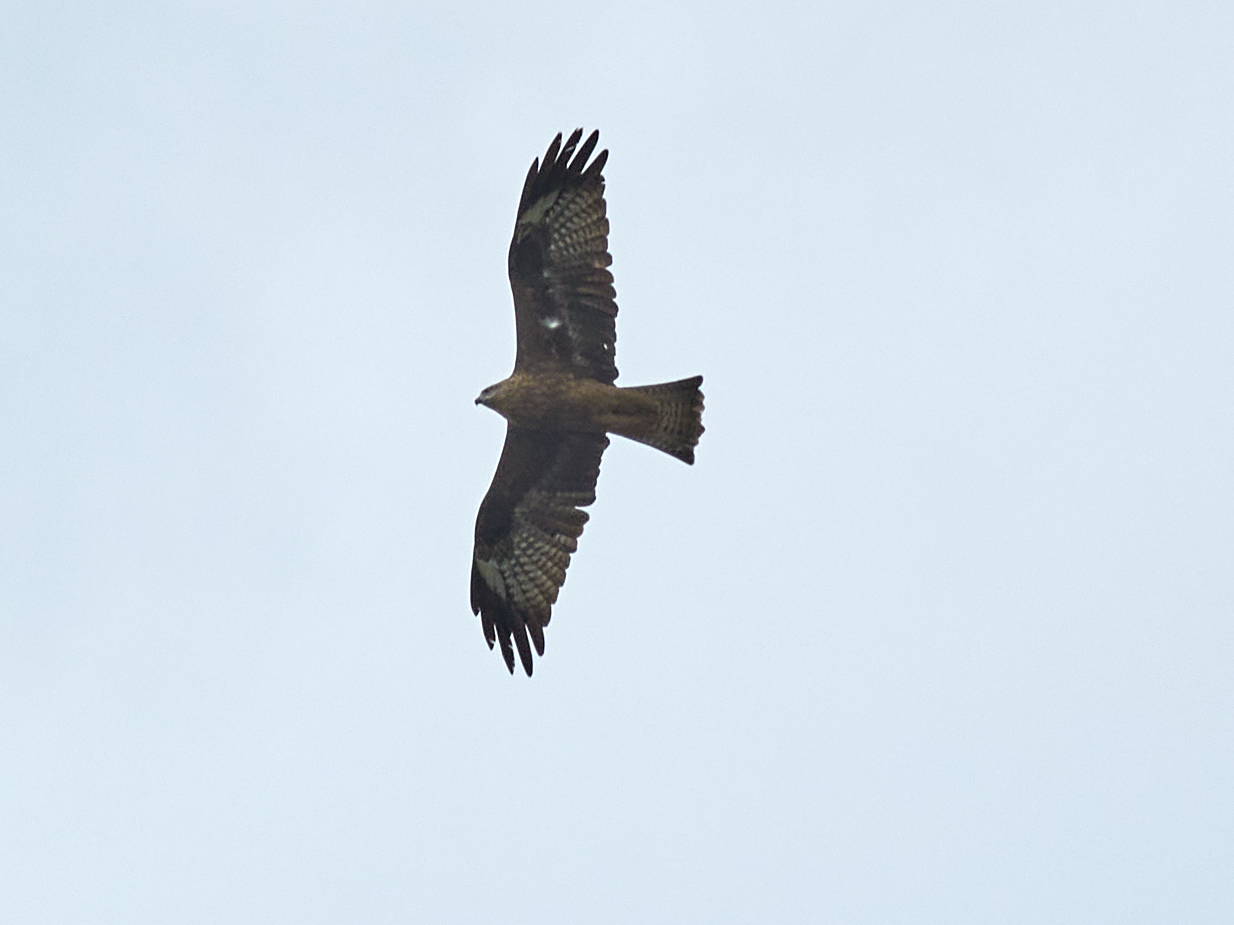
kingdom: Animalia
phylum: Chordata
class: Aves
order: Accipitriformes
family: Accipitridae
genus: Milvus
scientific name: Milvus migrans
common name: Black kite
